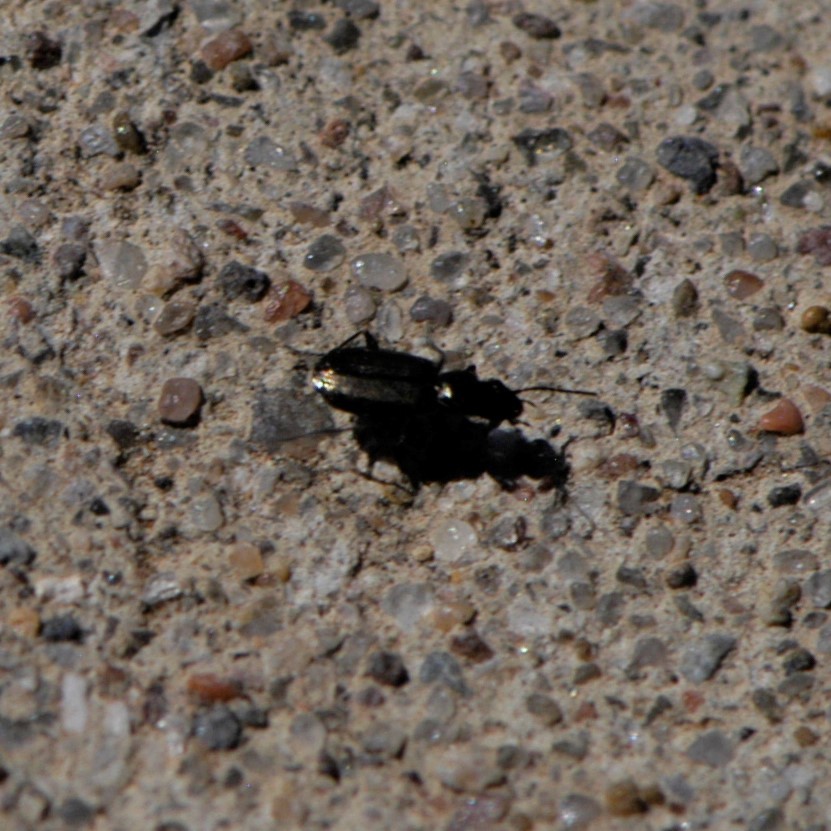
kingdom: Animalia
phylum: Arthropoda
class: Insecta
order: Coleoptera
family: Carabidae
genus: Apristus
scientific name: Apristus
